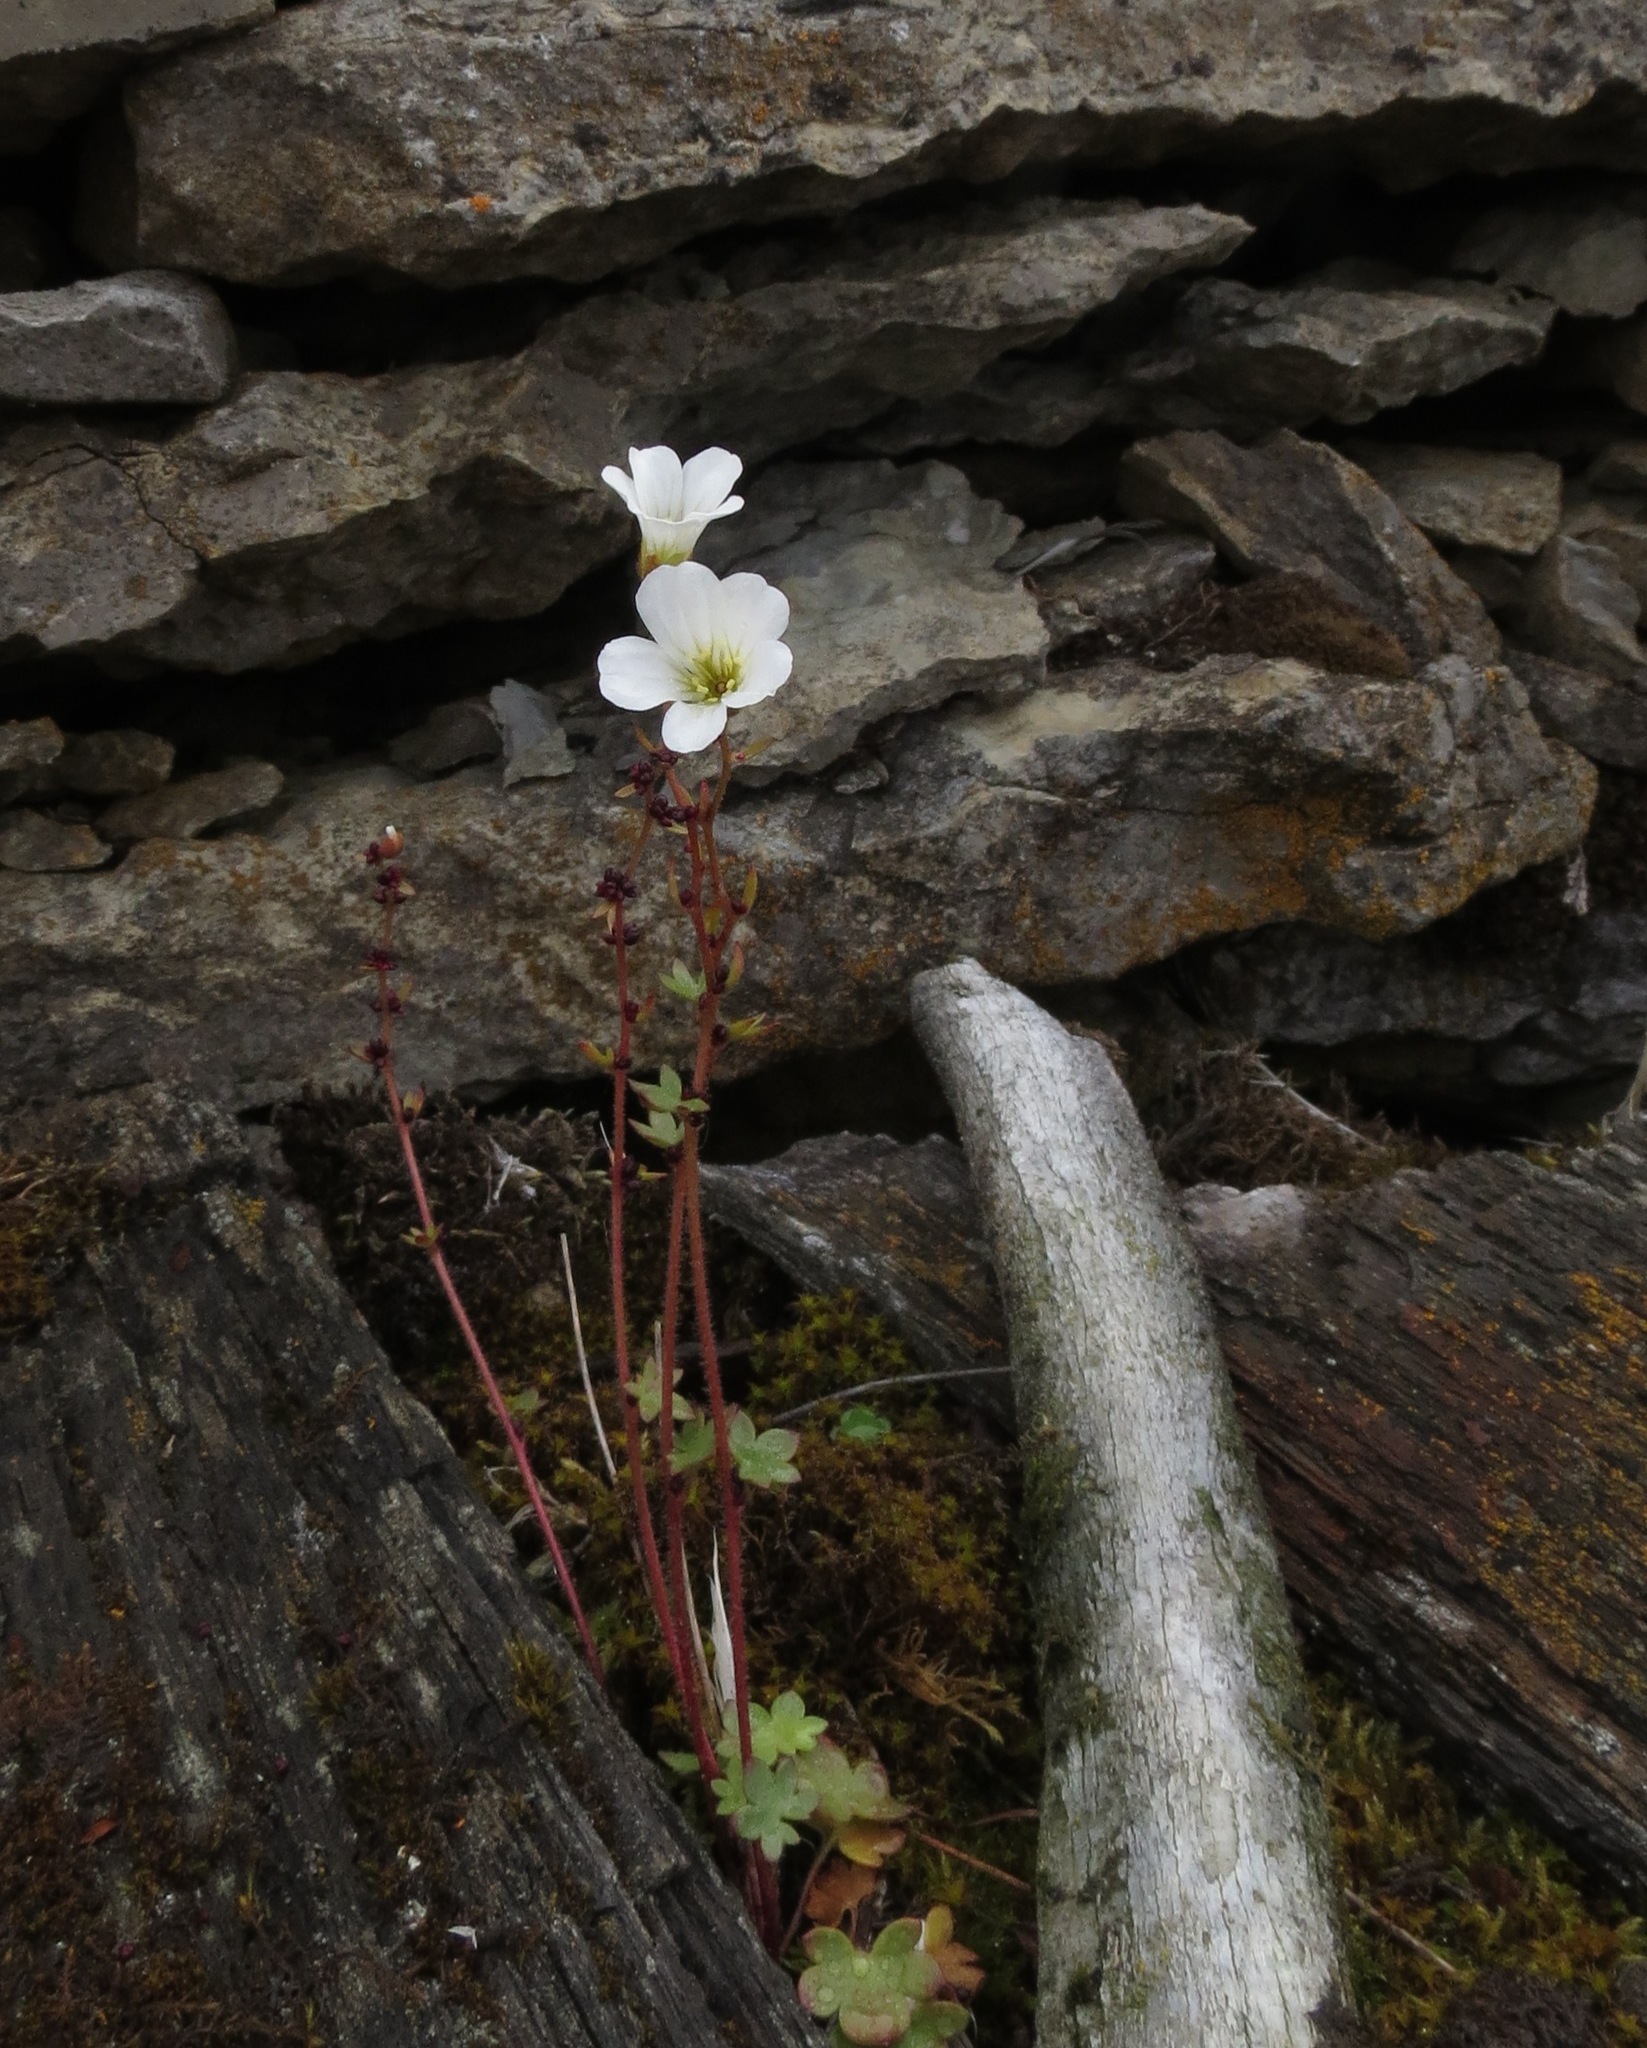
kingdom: Plantae
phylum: Tracheophyta
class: Magnoliopsida
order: Saxifragales
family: Saxifragaceae
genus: Saxifraga
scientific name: Saxifraga cernua
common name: Drooping saxifrage
